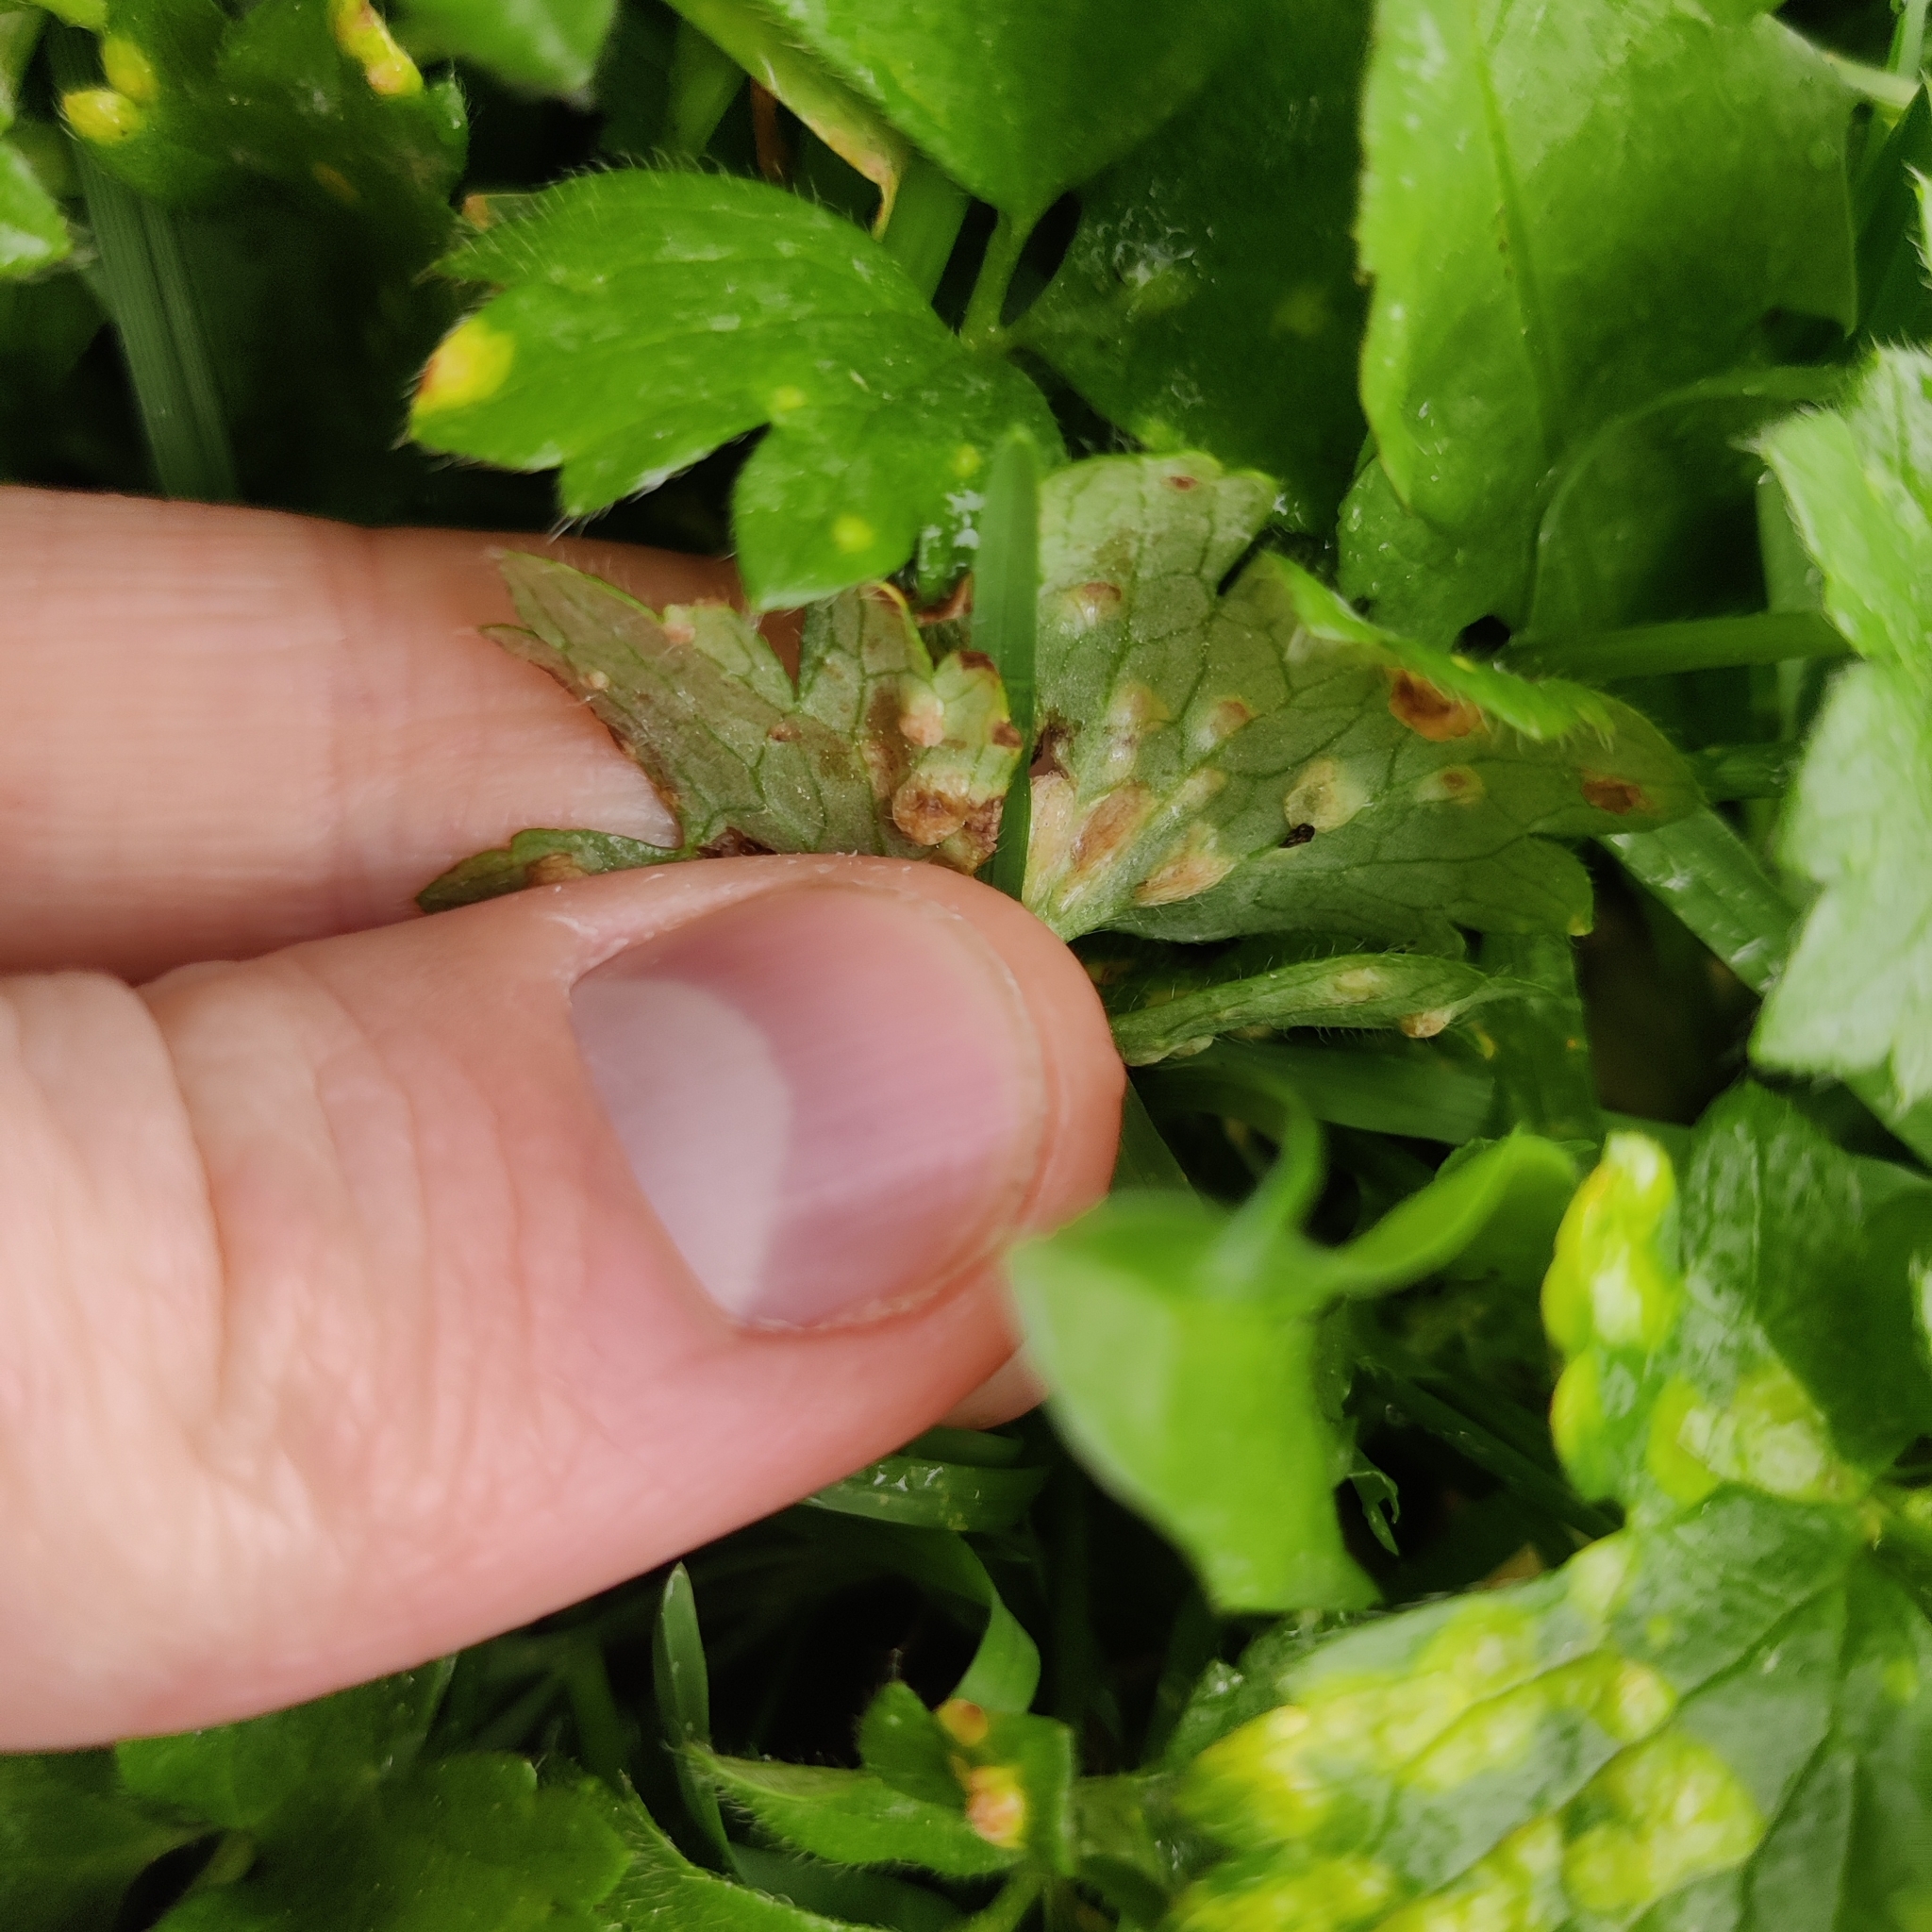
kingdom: Fungi
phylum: Basidiomycota
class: Exobasidiomycetes
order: Entylomatales
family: Entylomataceae
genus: Entyloma
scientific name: Entyloma microsporum
